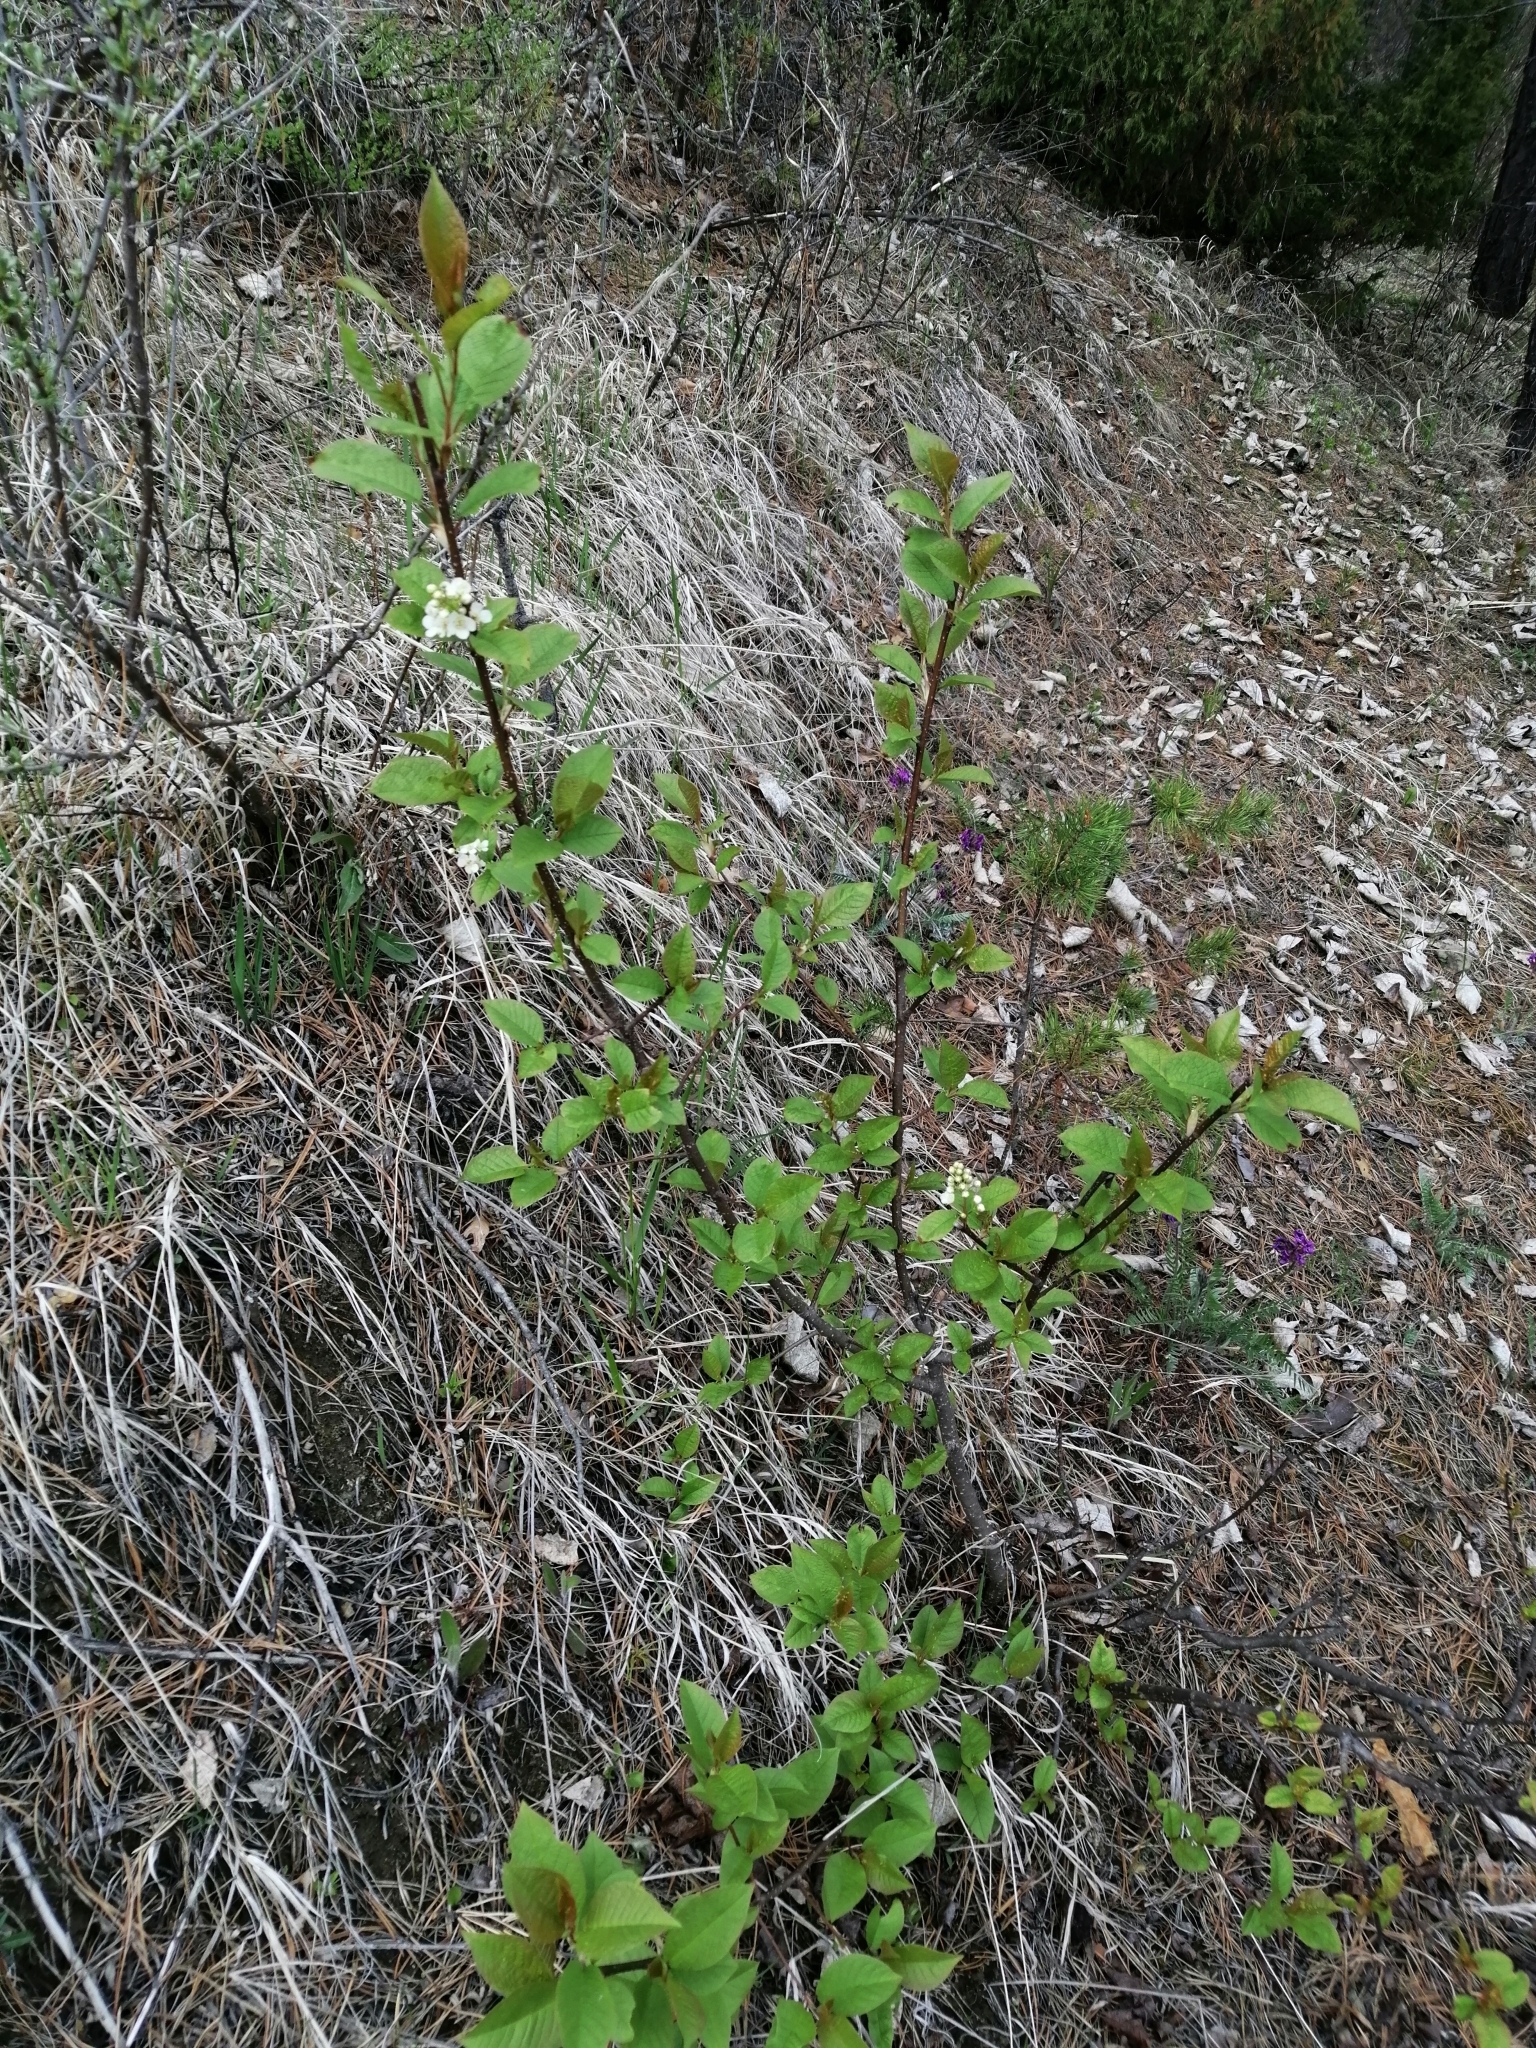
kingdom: Plantae
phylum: Tracheophyta
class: Magnoliopsida
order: Rosales
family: Rosaceae
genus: Prunus
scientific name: Prunus padus
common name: Bird cherry
